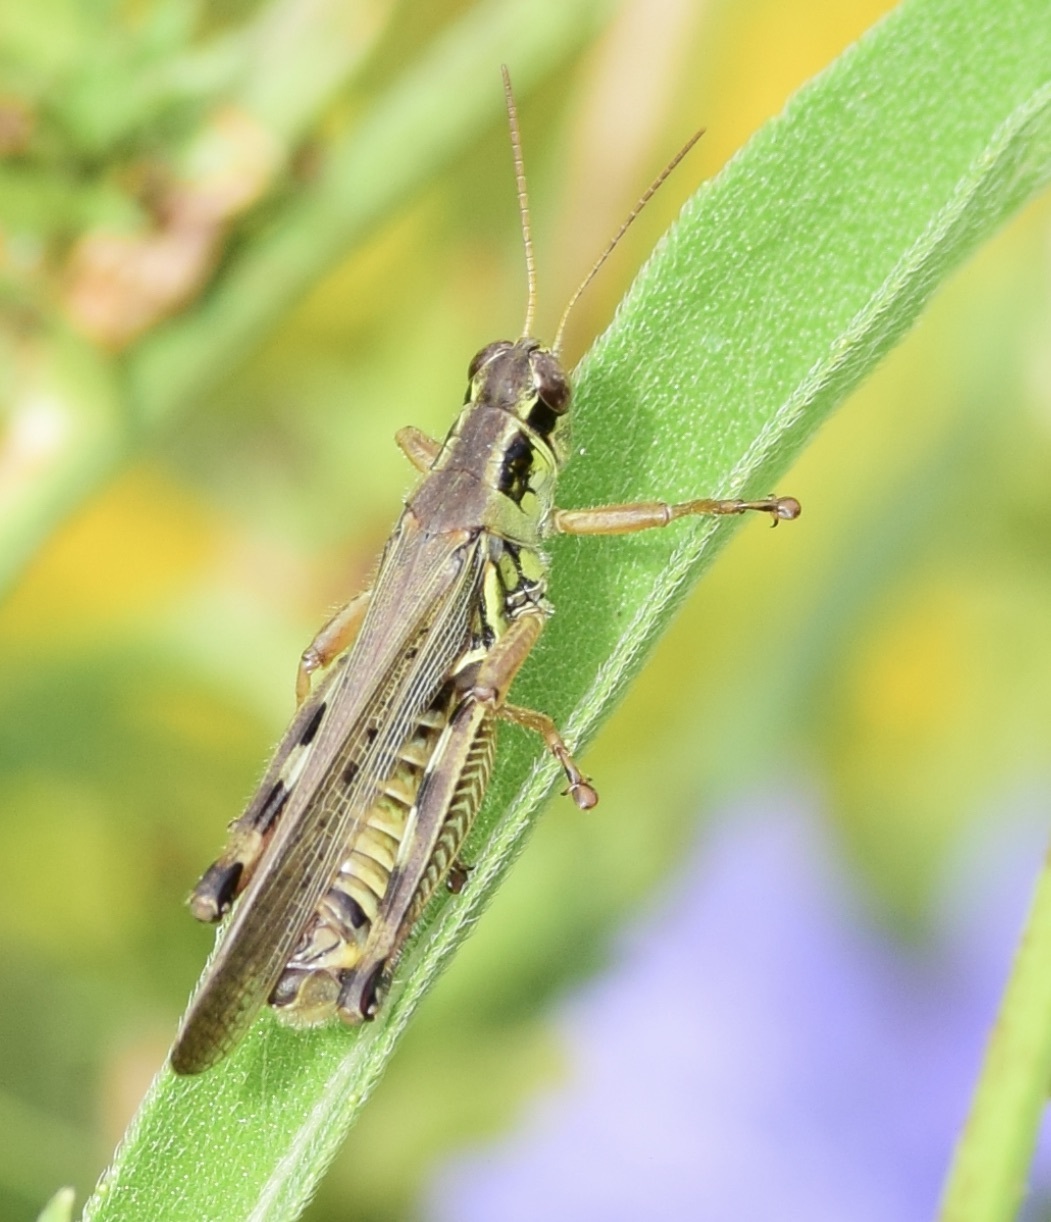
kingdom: Animalia
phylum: Arthropoda
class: Insecta
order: Orthoptera
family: Acrididae
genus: Melanoplus
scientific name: Melanoplus femurrubrum
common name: Red-legged grasshopper
